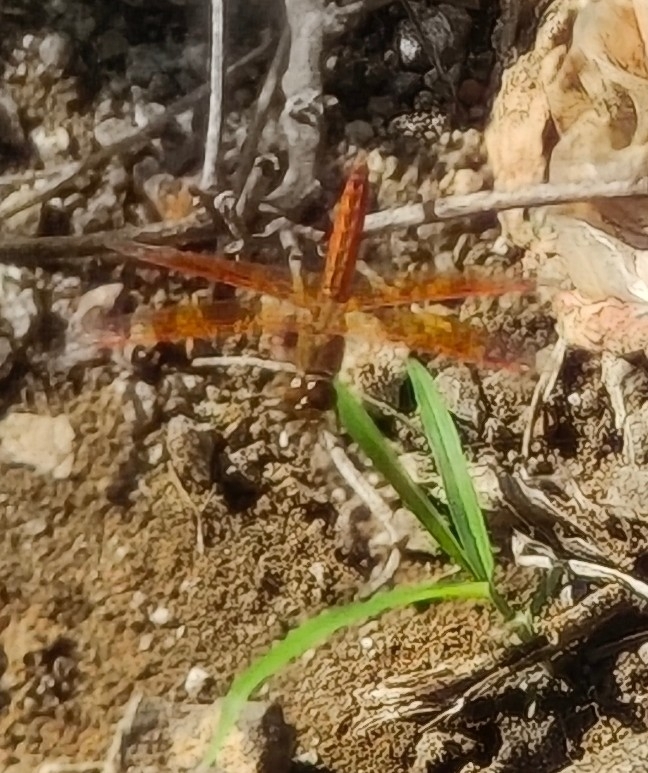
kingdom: Animalia
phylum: Arthropoda
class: Insecta
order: Odonata
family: Libellulidae
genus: Brachythemis
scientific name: Brachythemis contaminata
